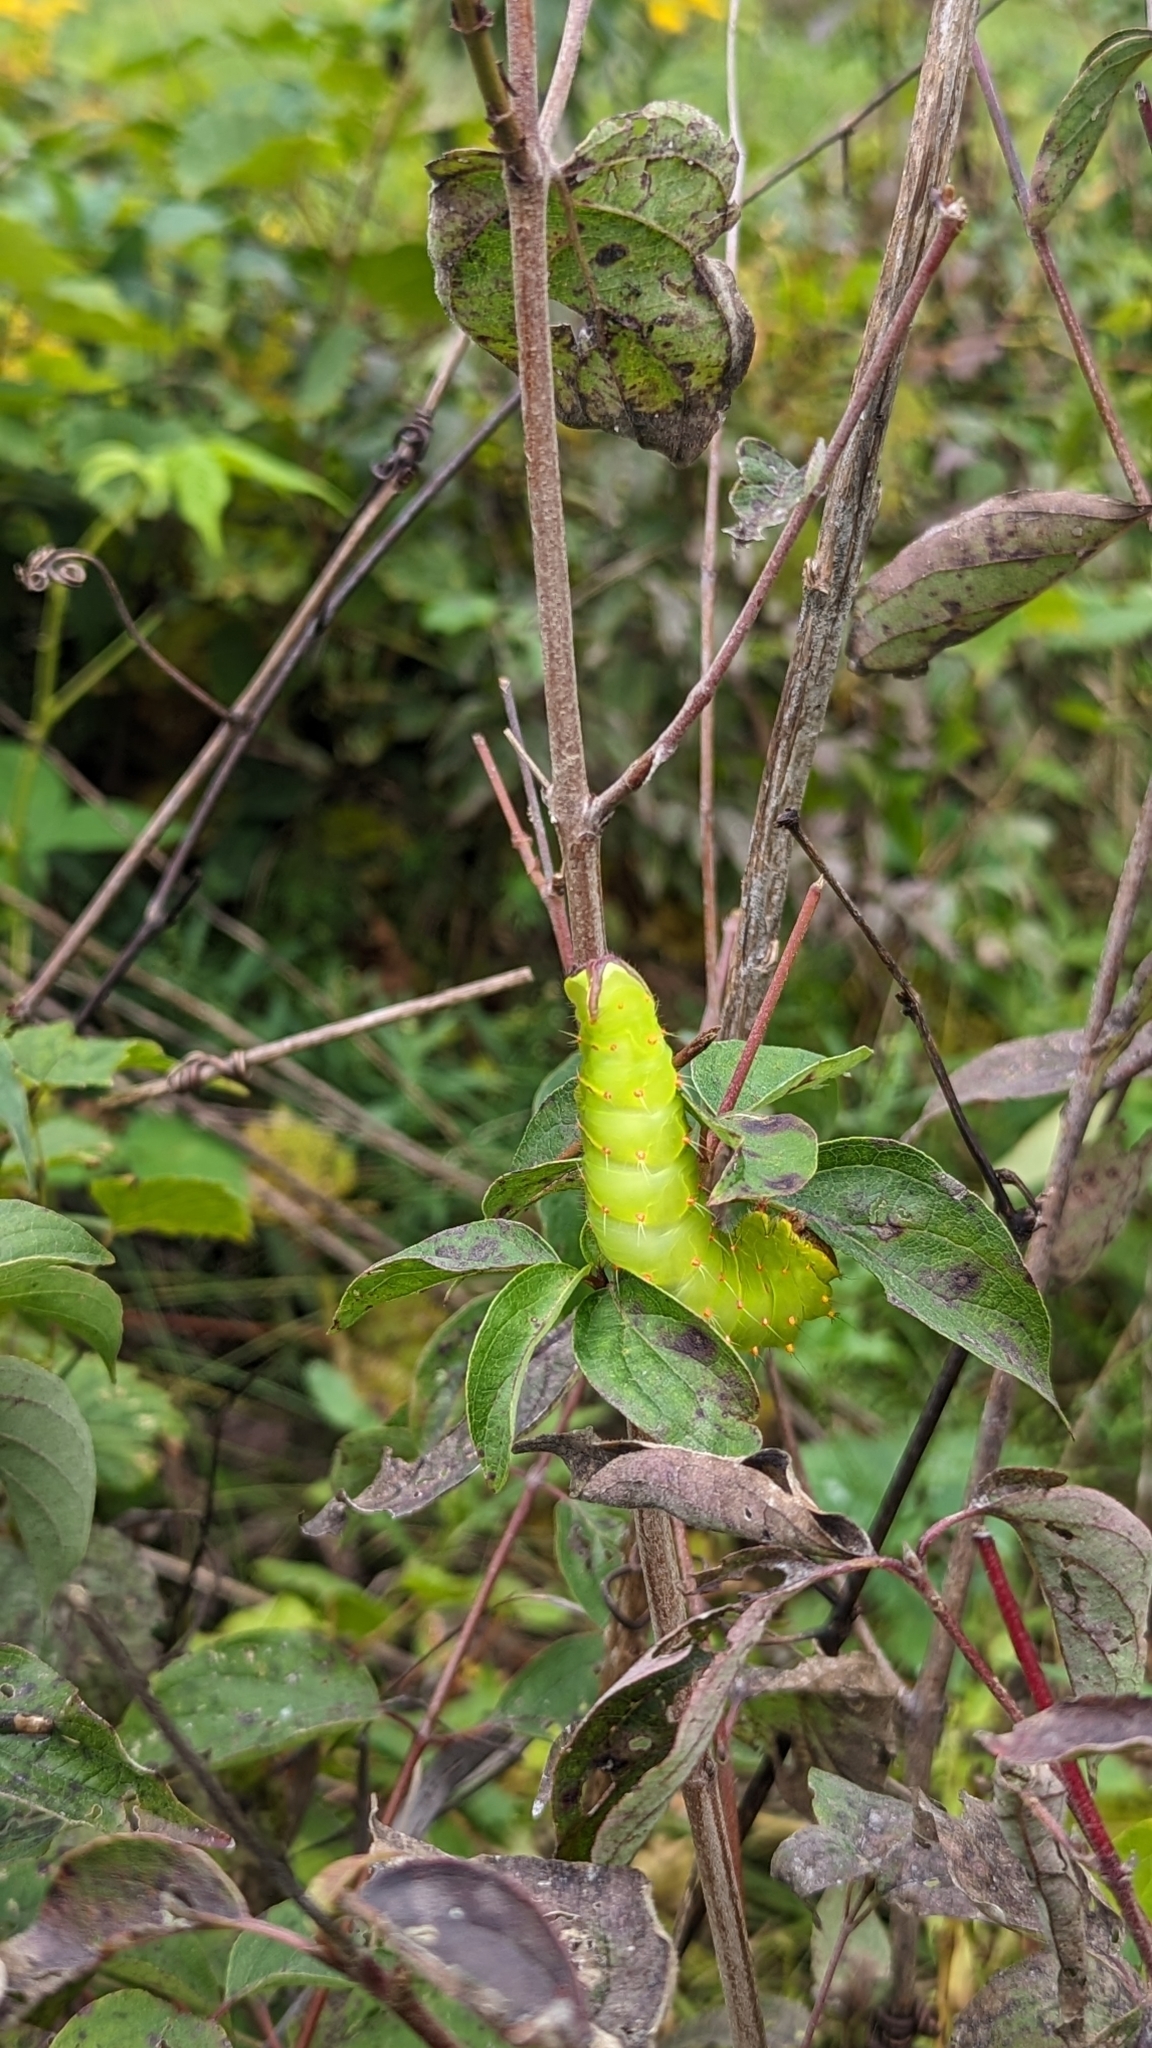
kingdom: Animalia
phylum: Arthropoda
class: Insecta
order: Lepidoptera
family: Saturniidae
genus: Antheraea
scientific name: Antheraea polyphemus
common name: Polyphemus moth
